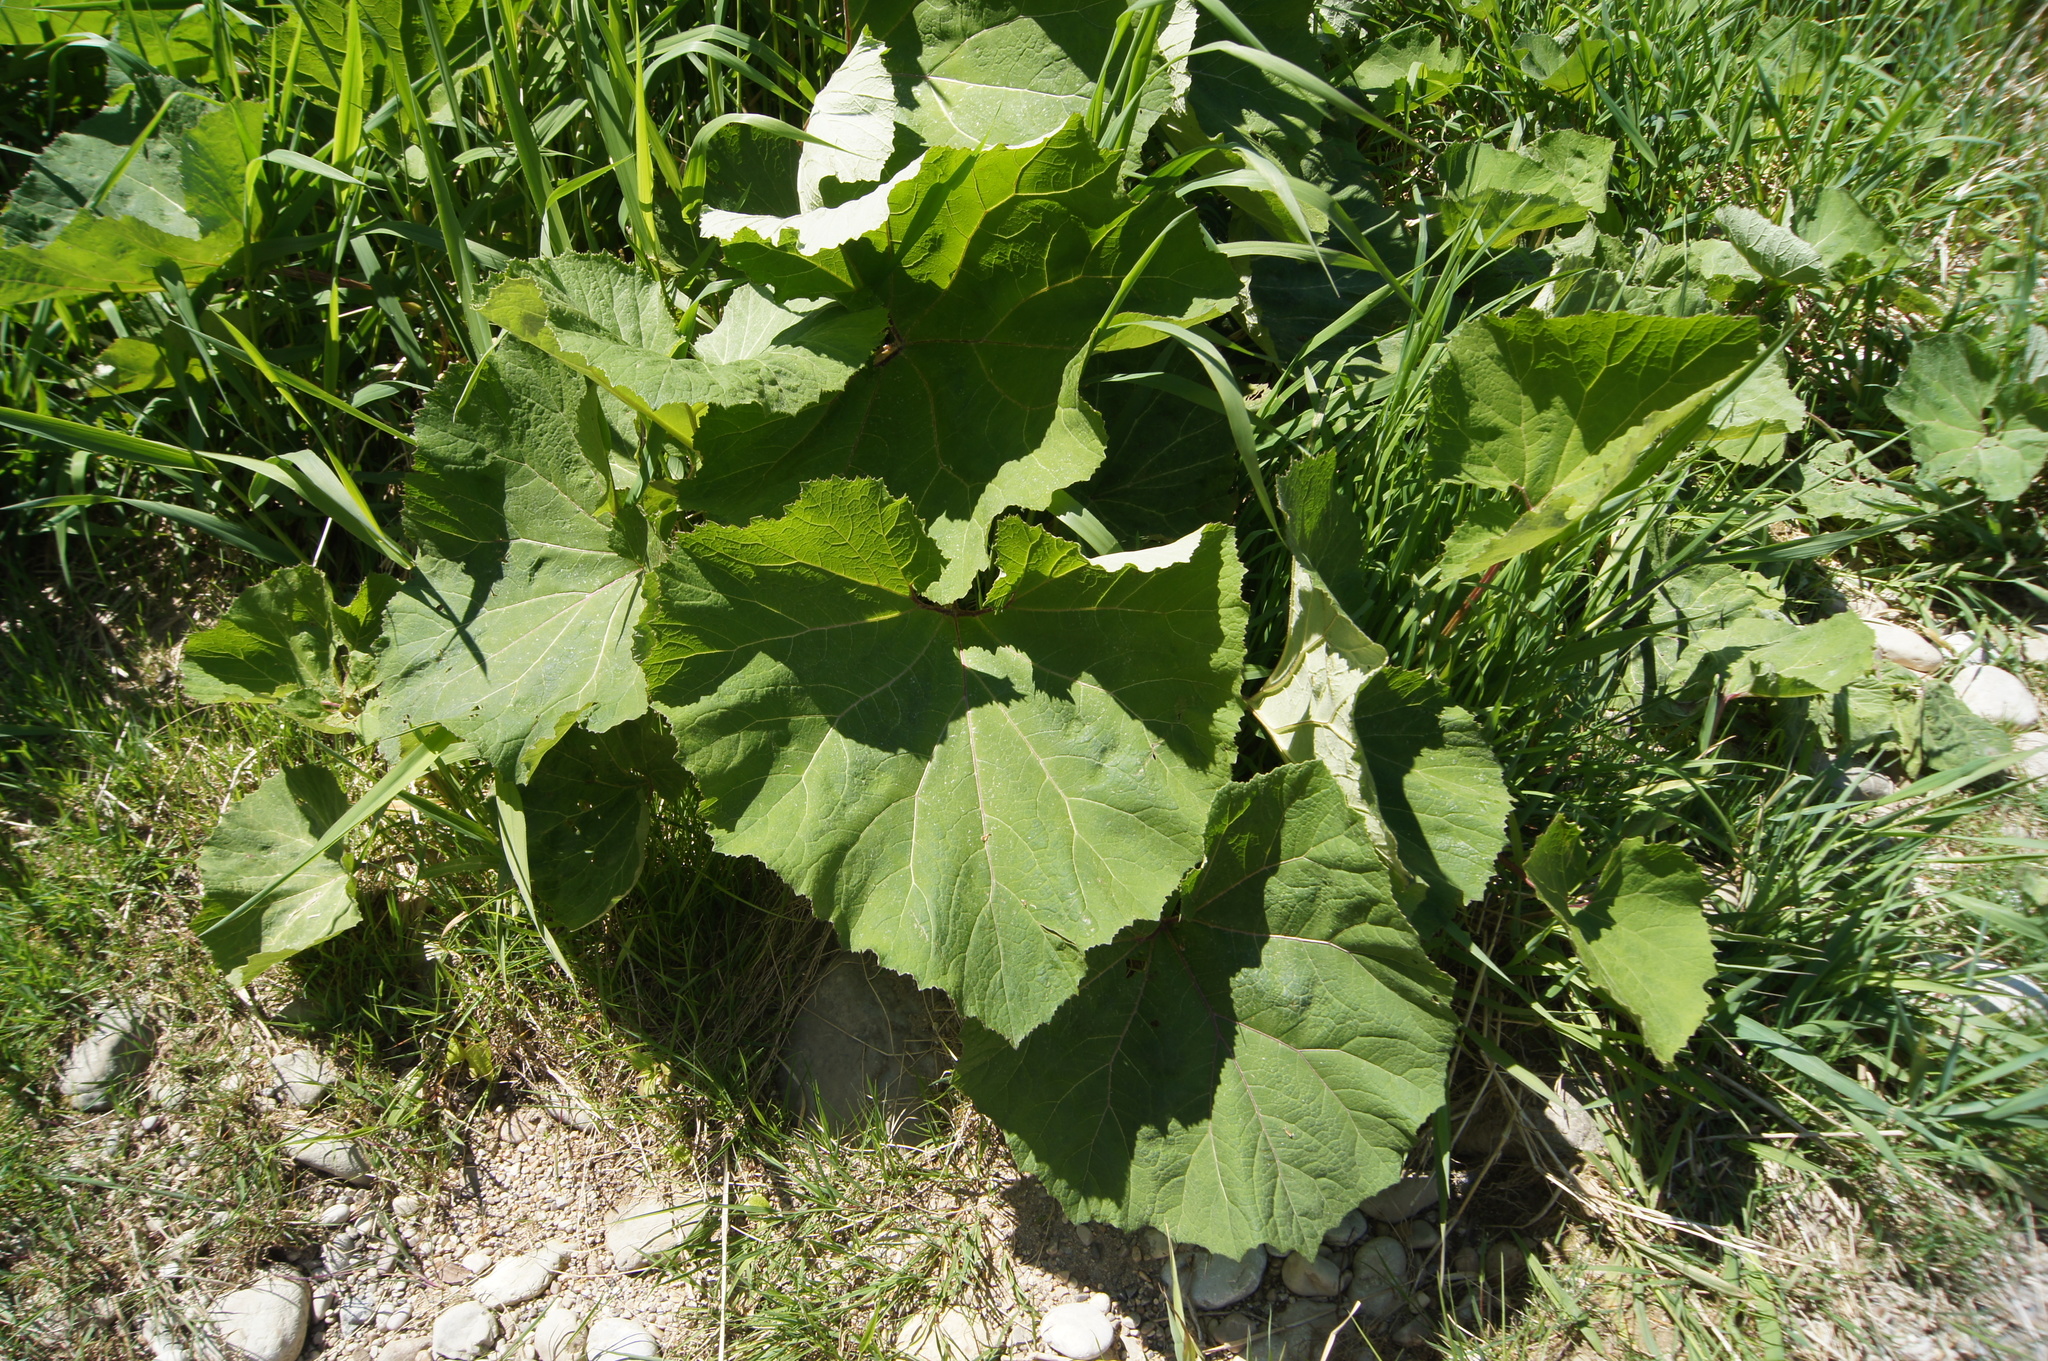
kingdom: Plantae
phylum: Tracheophyta
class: Magnoliopsida
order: Asterales
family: Asteraceae
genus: Petasites
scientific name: Petasites hybridus
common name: Butterbur
